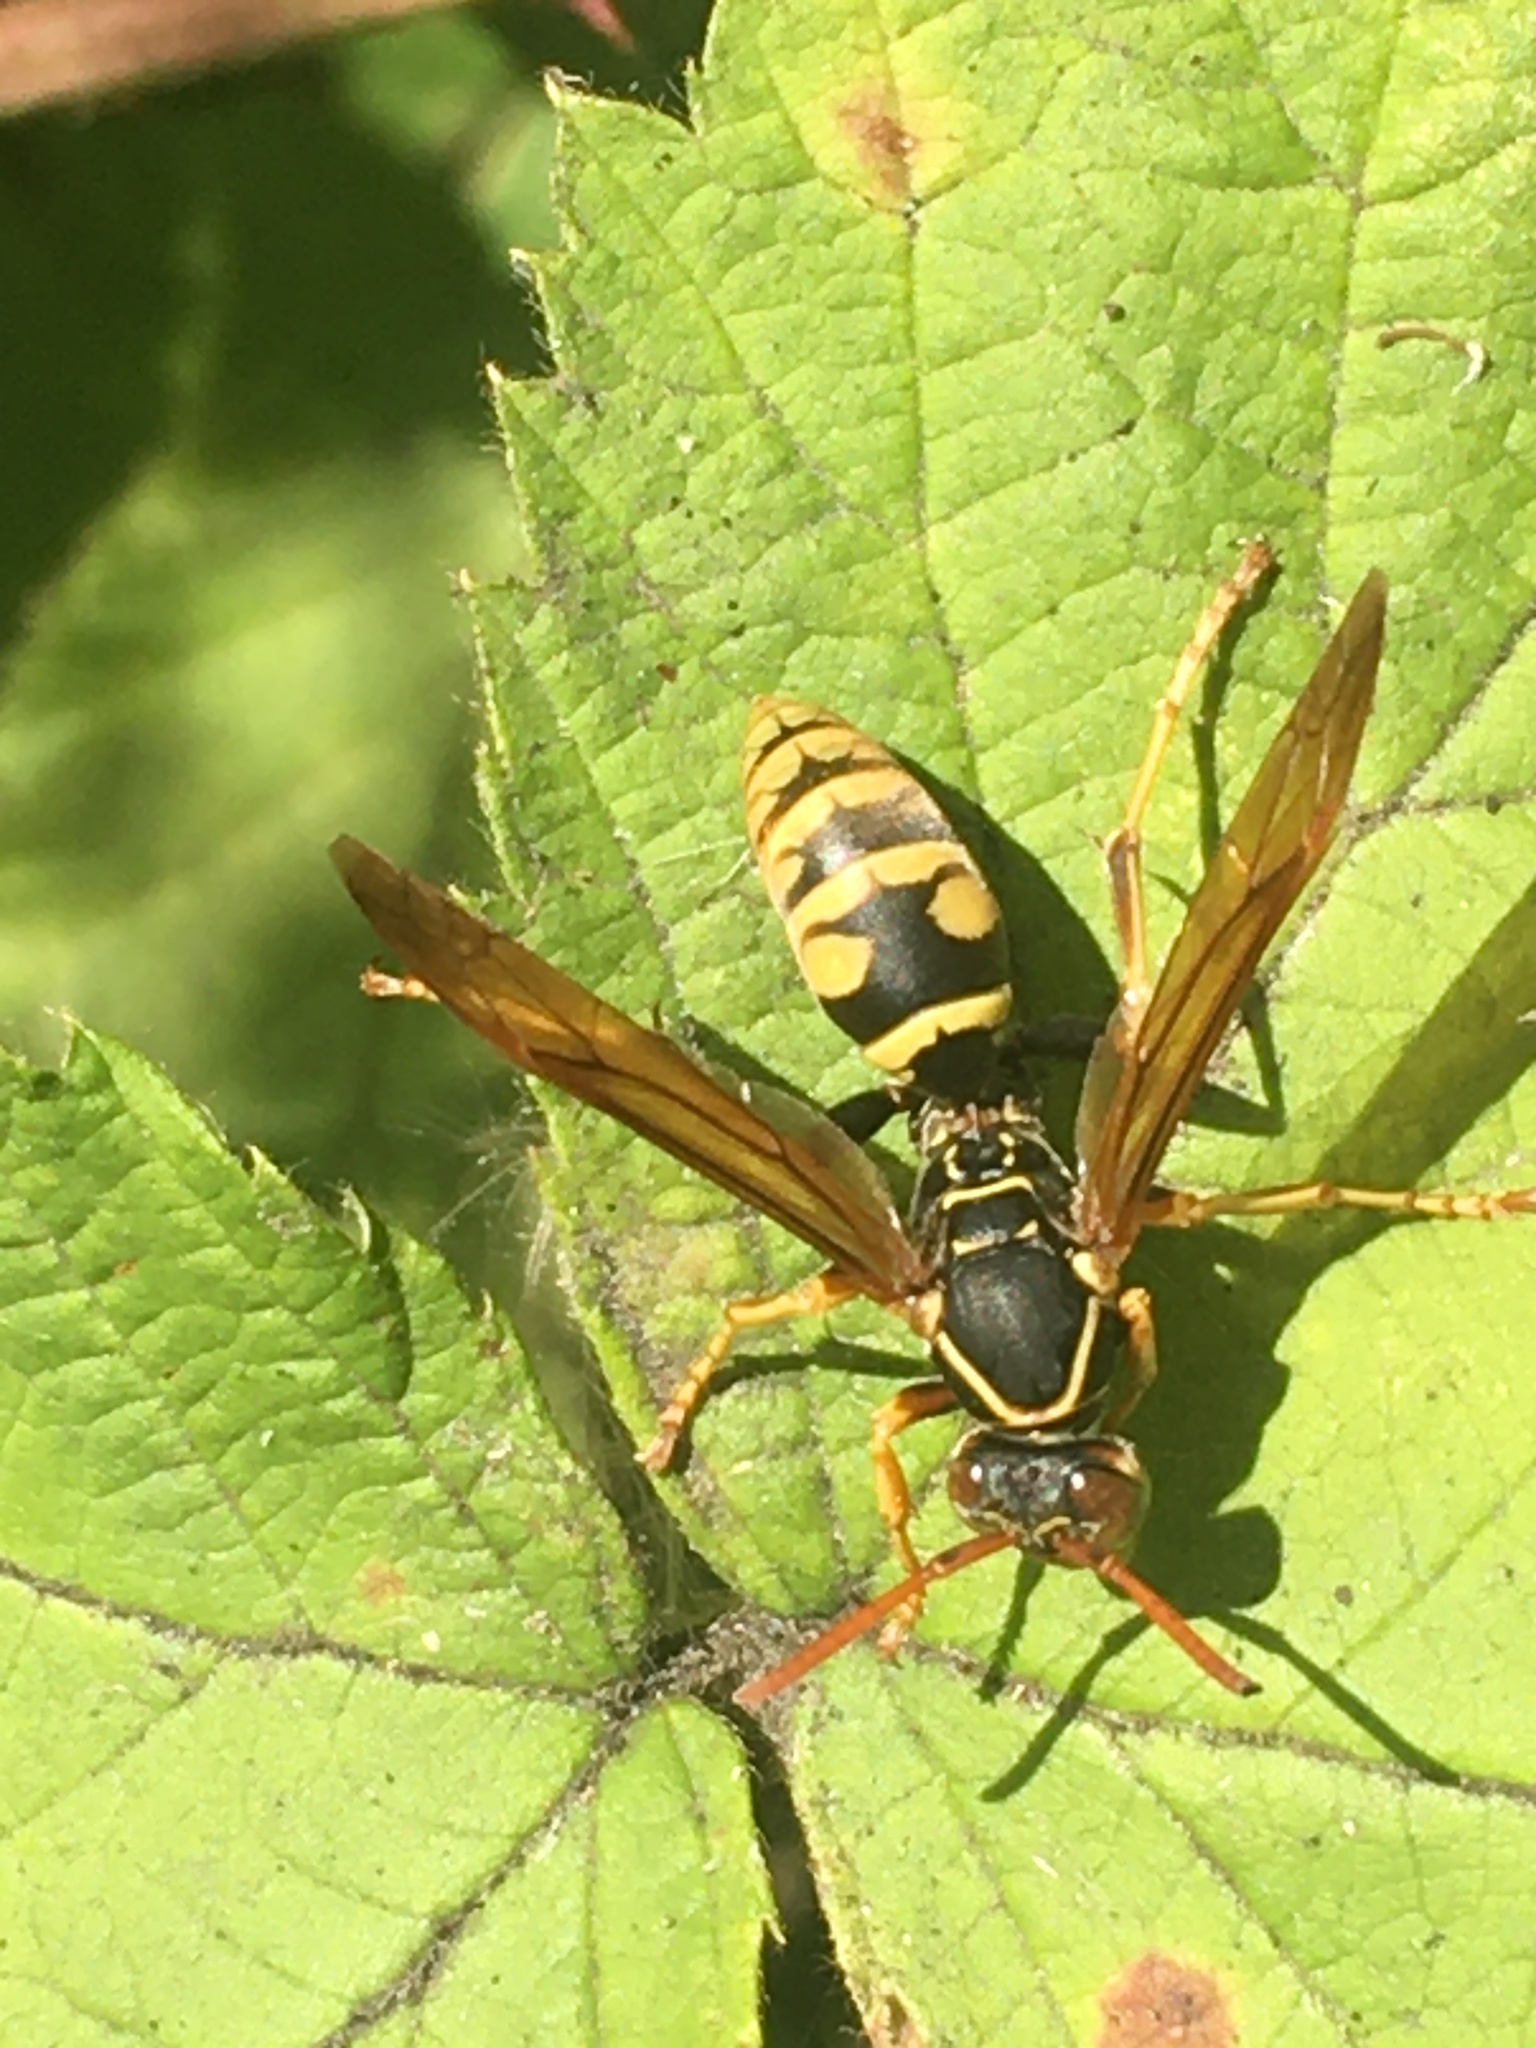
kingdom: Animalia
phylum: Arthropoda
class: Insecta
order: Hymenoptera
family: Eumenidae
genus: Polistes
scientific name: Polistes aurifer
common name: Paper wasp
